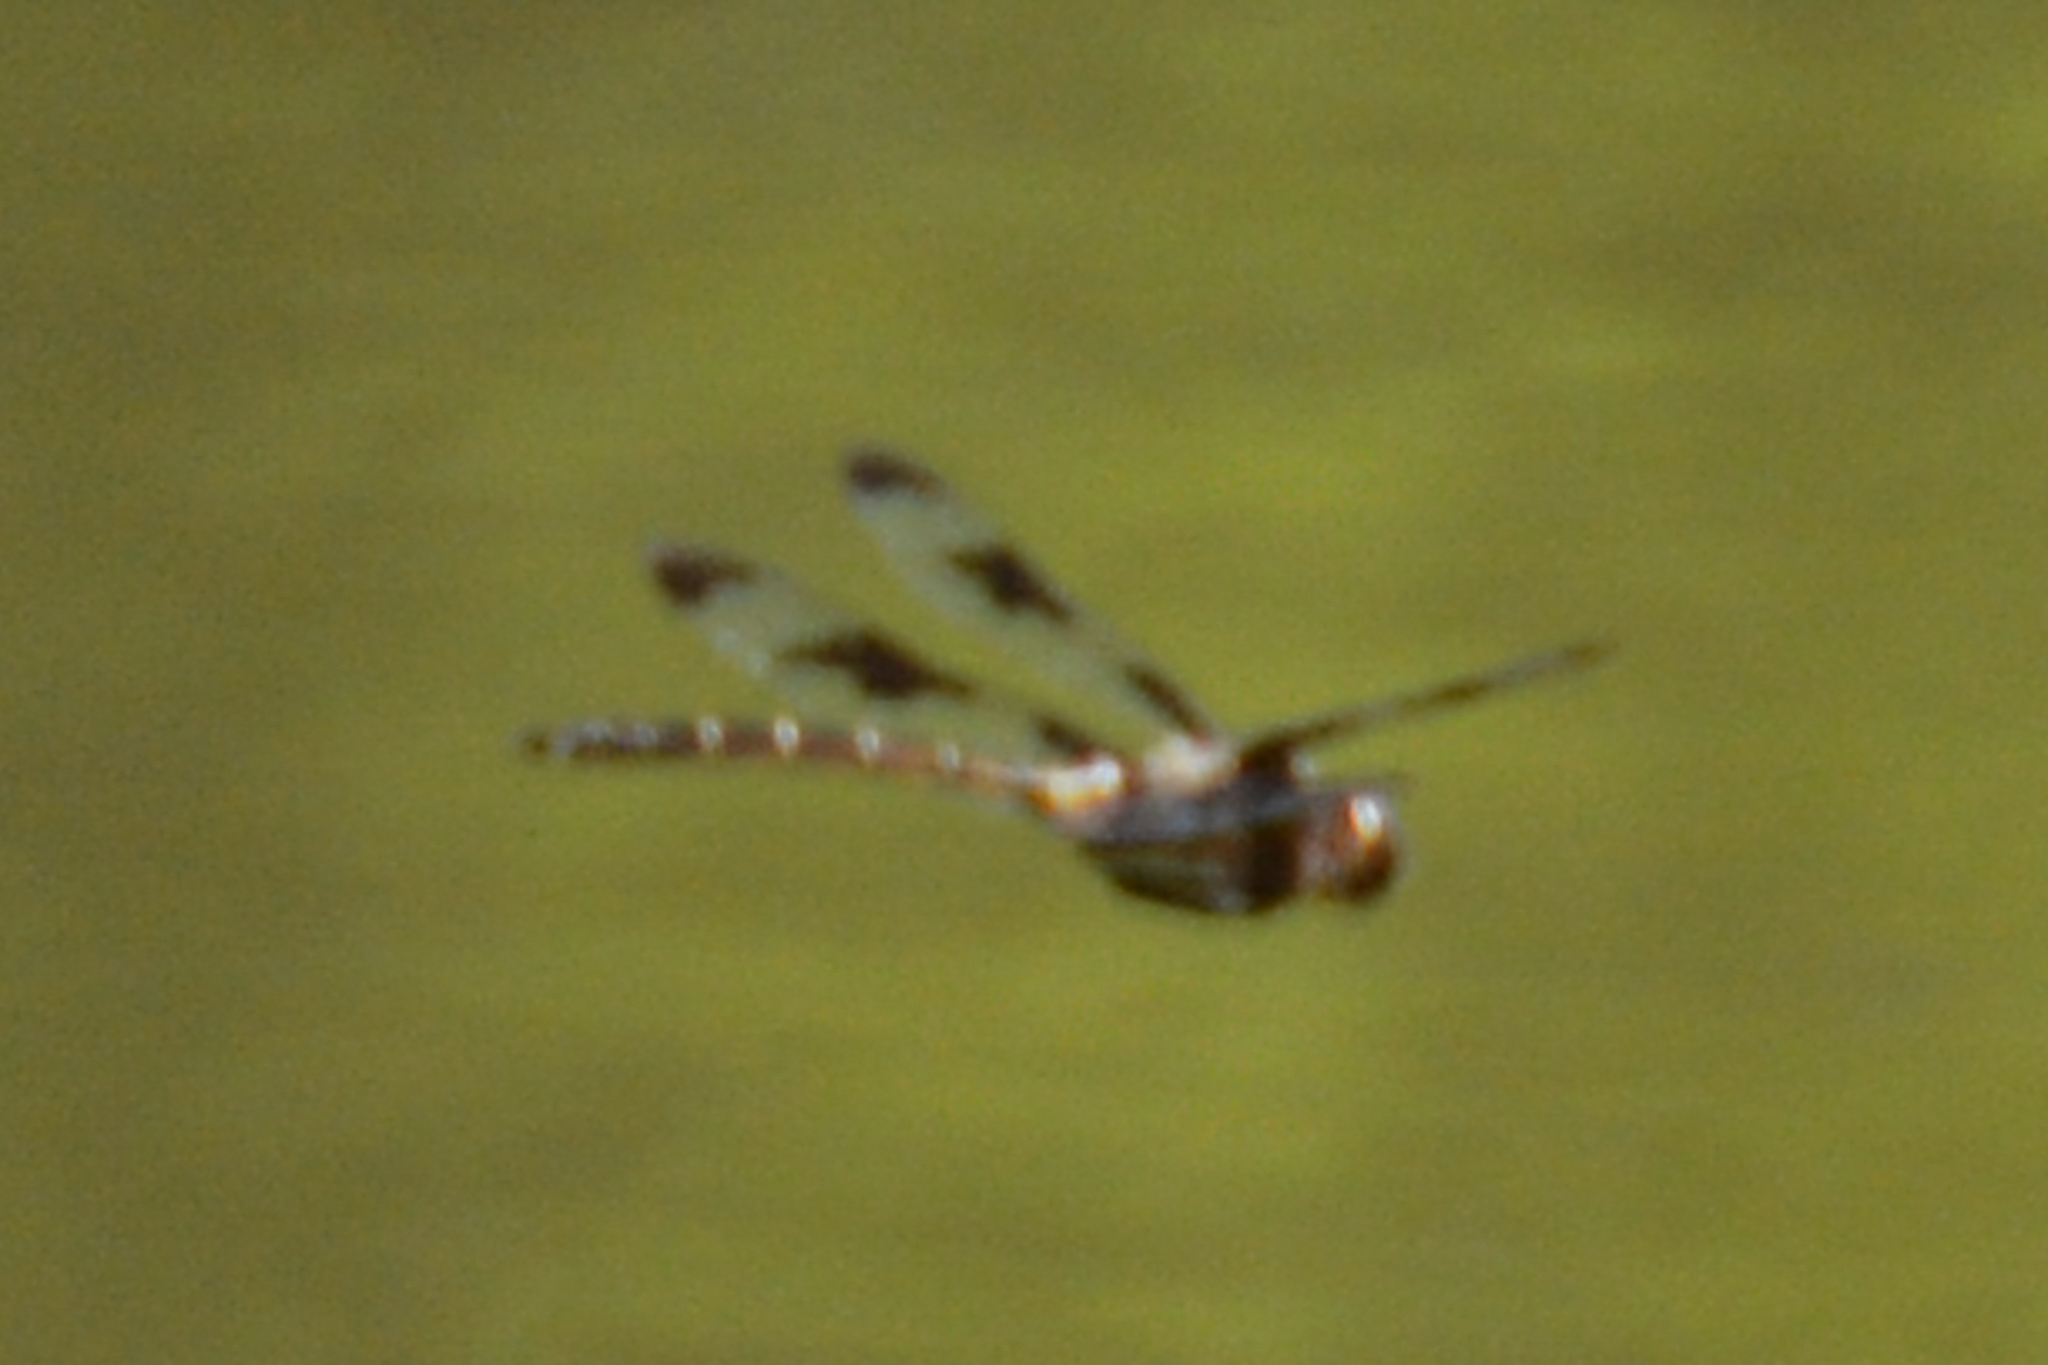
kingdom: Animalia
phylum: Arthropoda
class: Insecta
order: Odonata
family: Corduliidae
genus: Epitheca
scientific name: Epitheca princeps
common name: Prince baskettail
